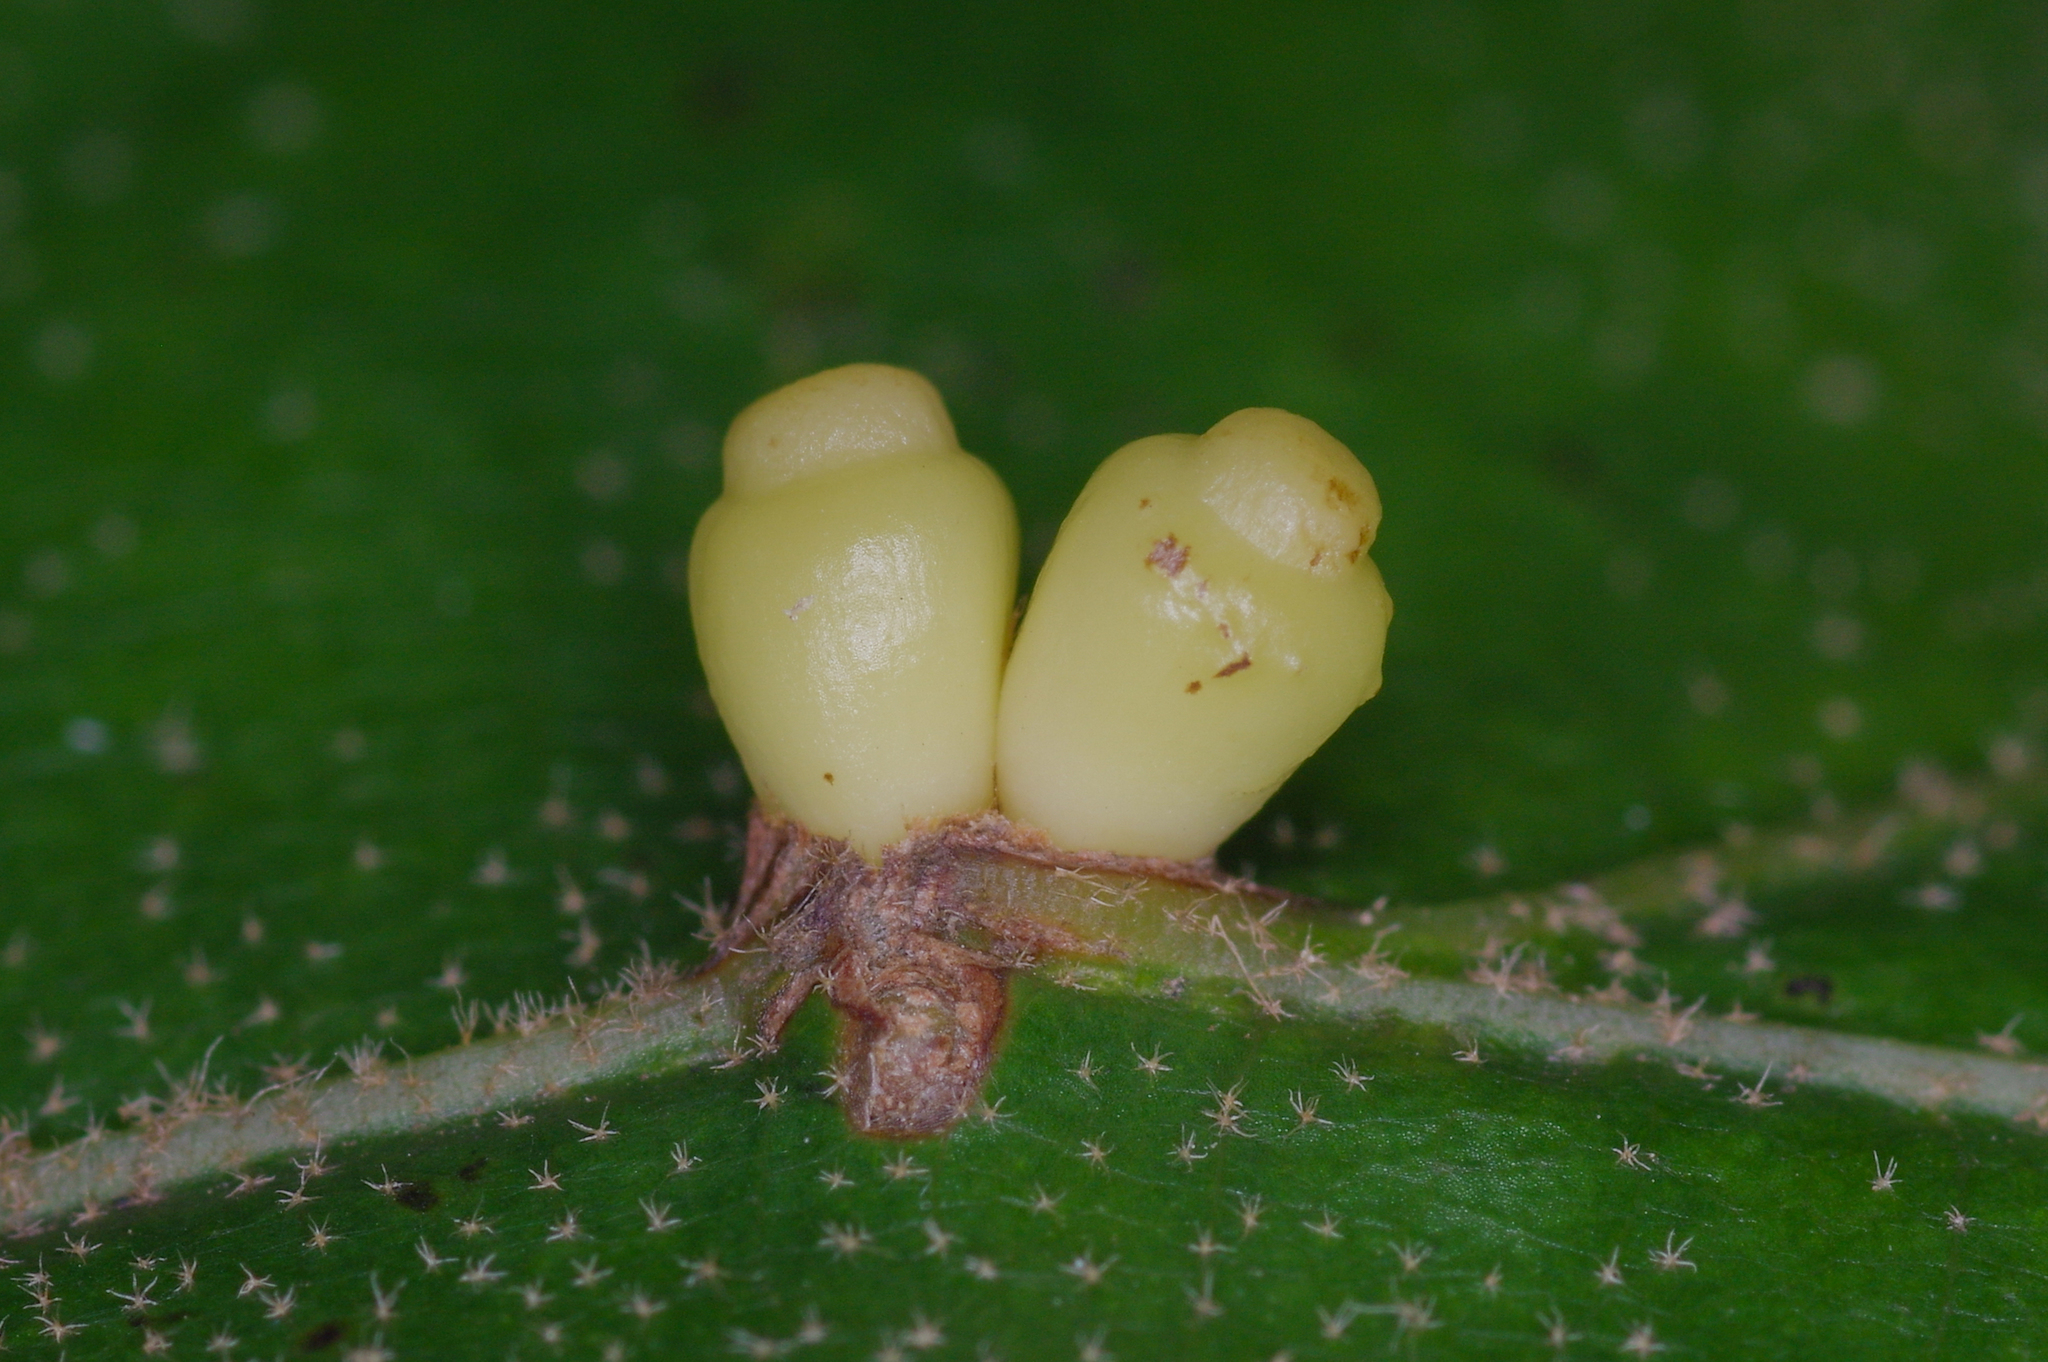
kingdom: Animalia
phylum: Arthropoda
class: Insecta
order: Hymenoptera
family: Cynipidae
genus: Kokkocynips
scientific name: Kokkocynips decidua
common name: Oak wheat gall
